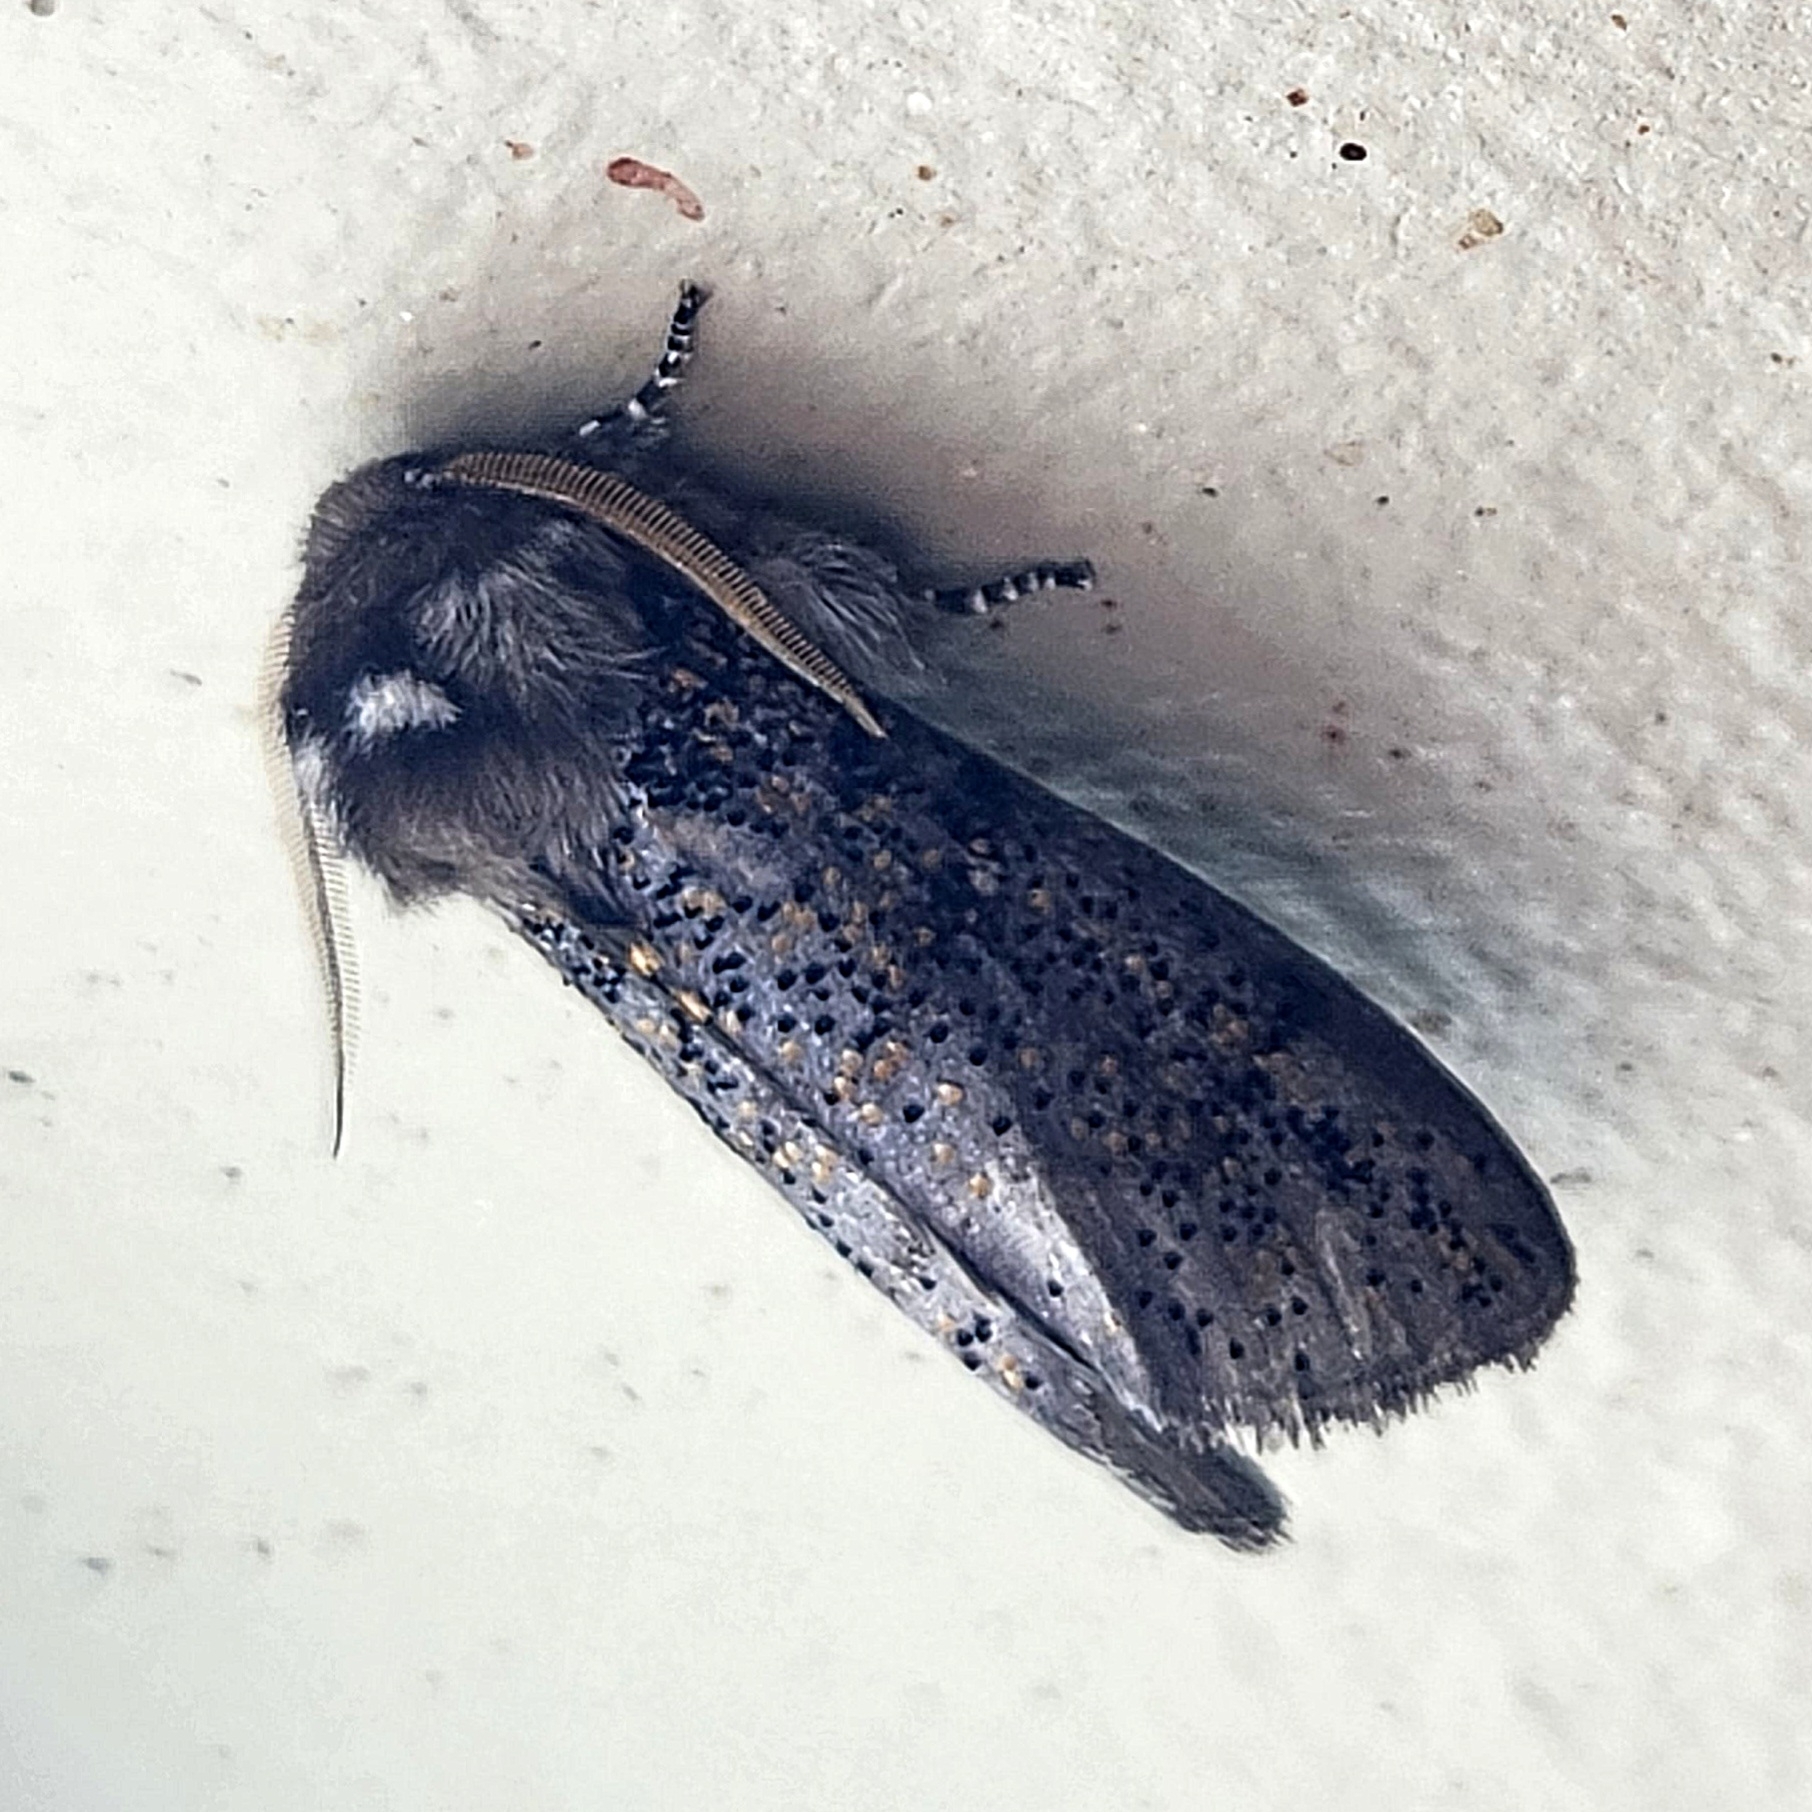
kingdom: Animalia
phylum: Arthropoda
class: Insecta
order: Lepidoptera
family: Oenosandridae
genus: Oenosandra
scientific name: Oenosandra boisduvalii
